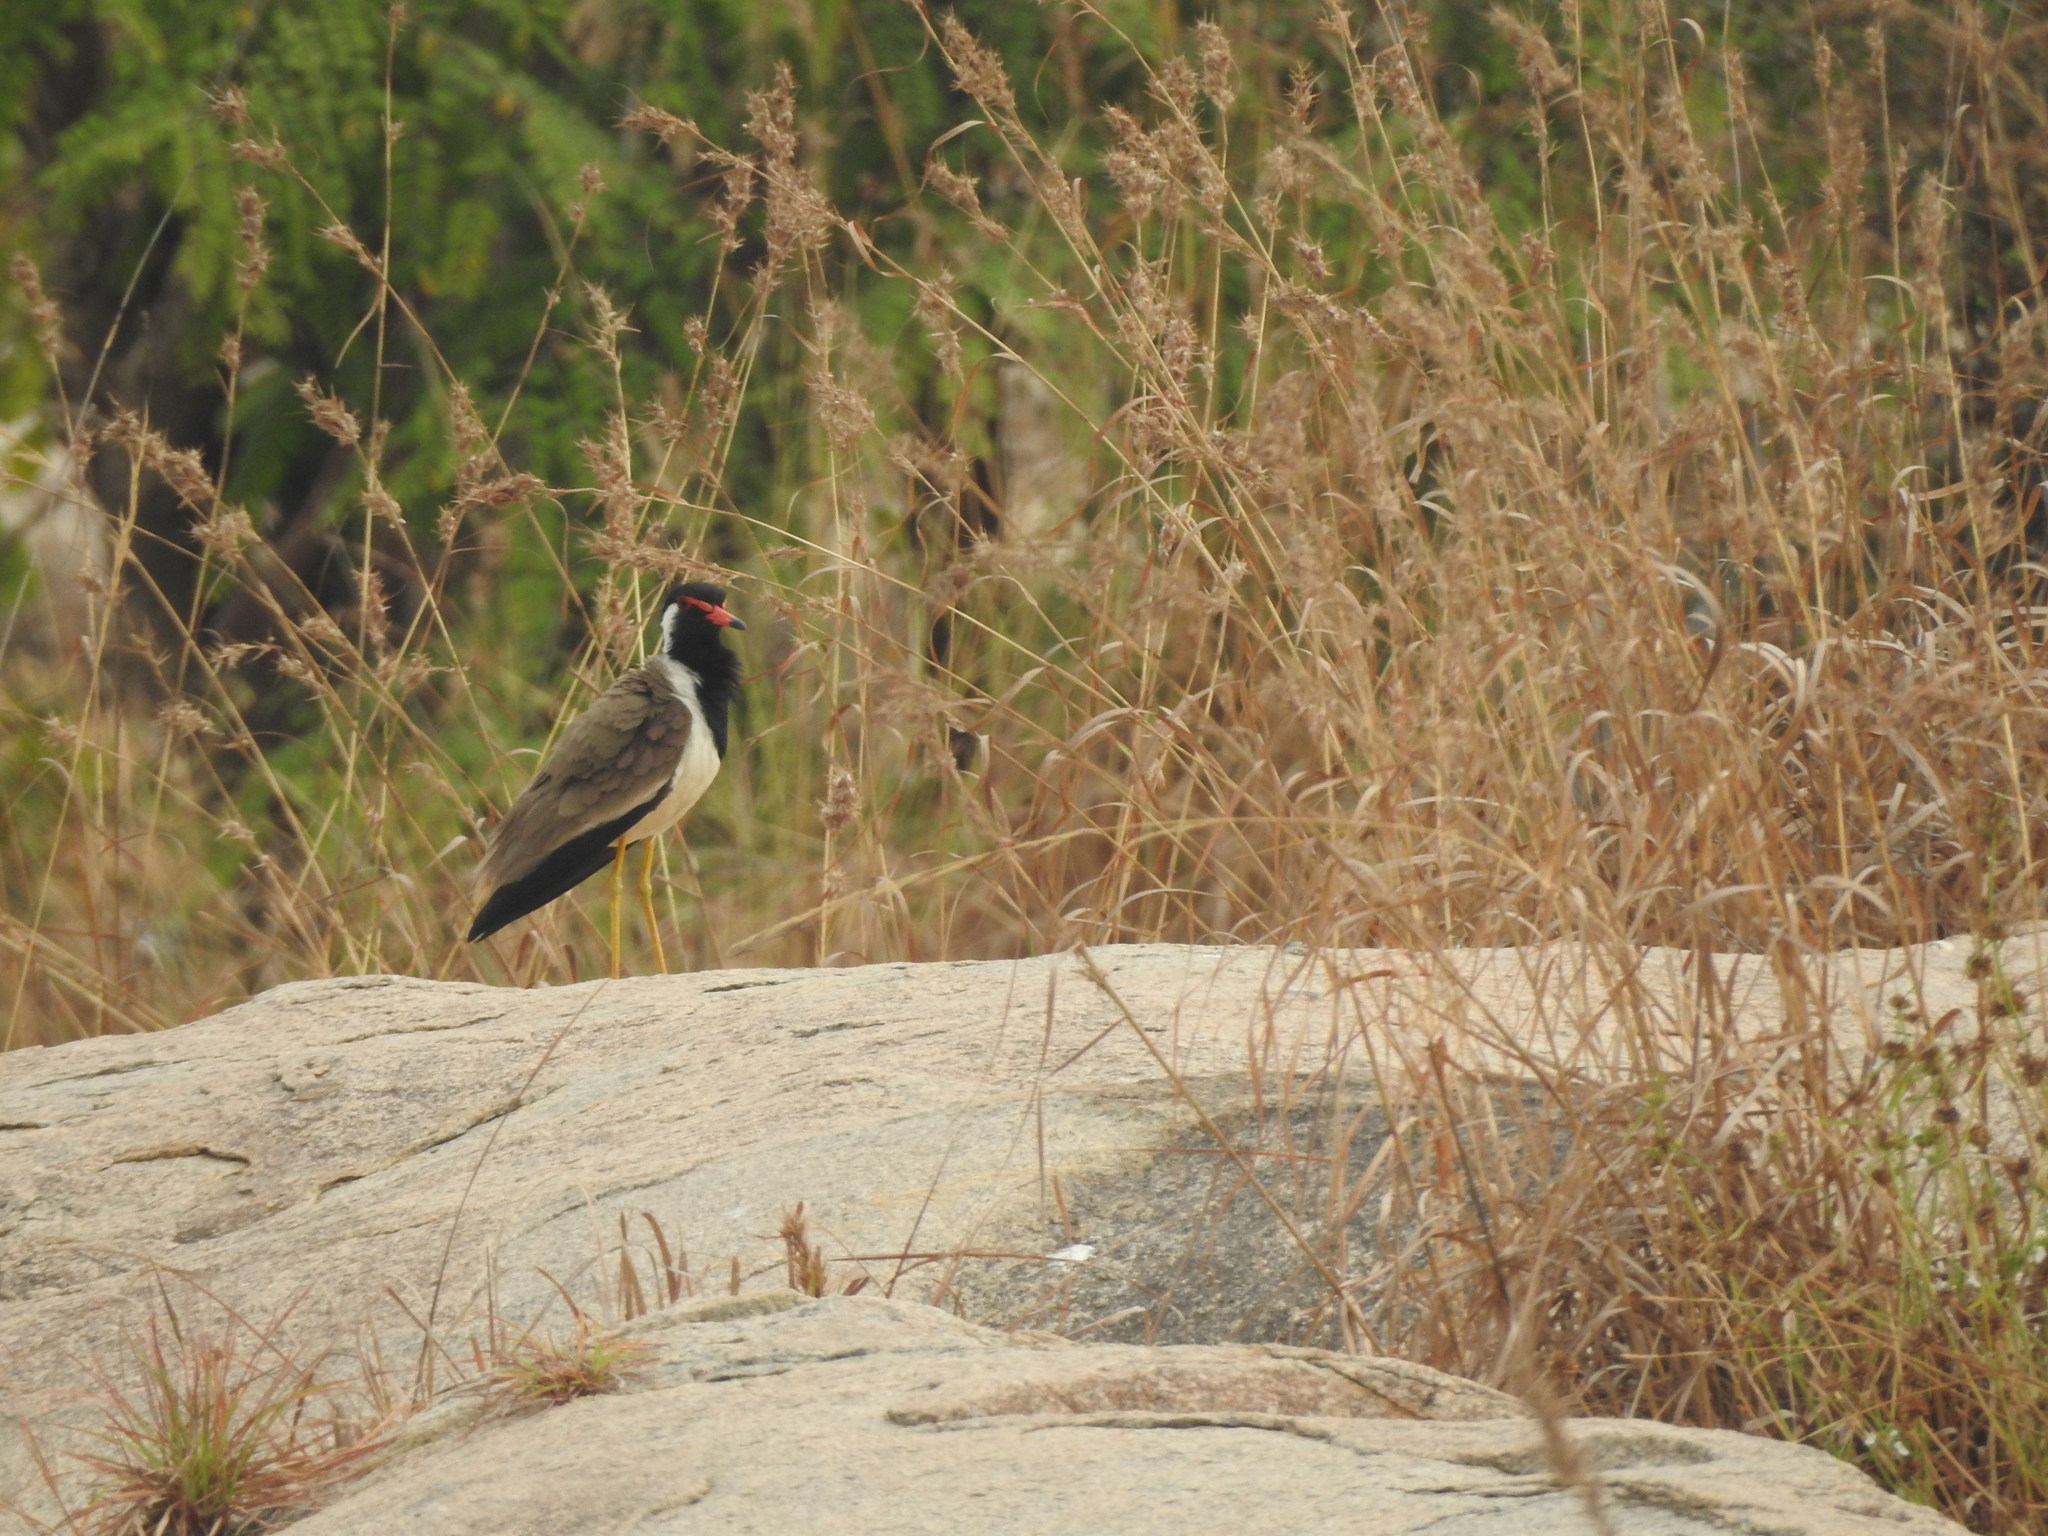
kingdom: Animalia
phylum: Chordata
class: Aves
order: Charadriiformes
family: Charadriidae
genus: Vanellus
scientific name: Vanellus indicus
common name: Red-wattled lapwing
